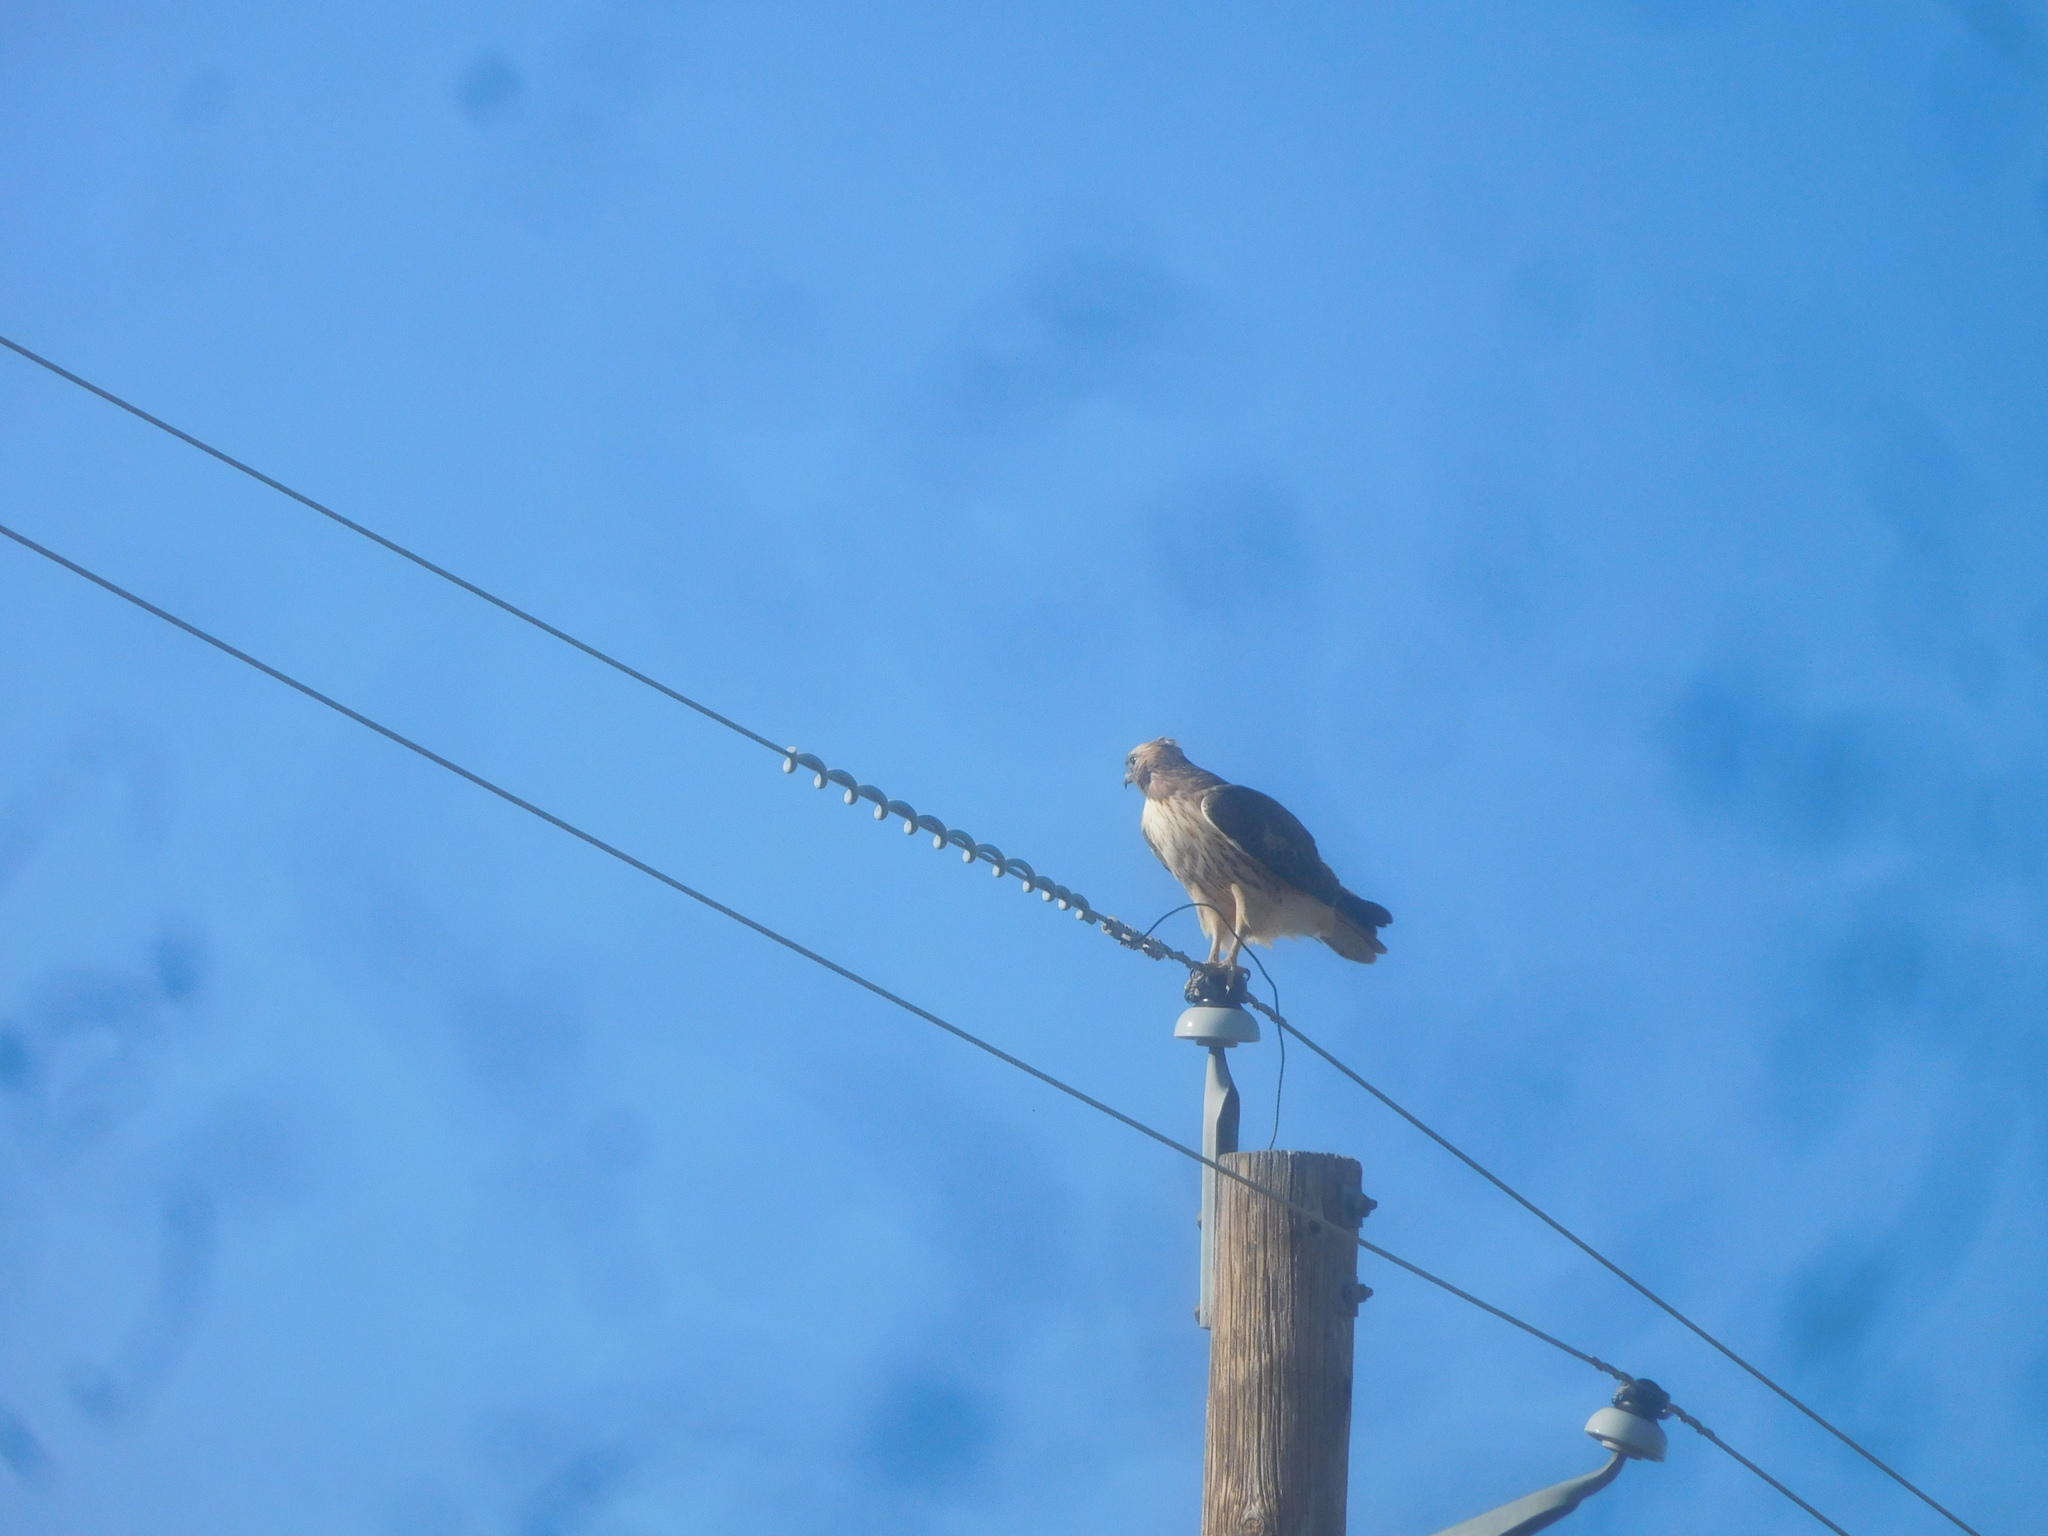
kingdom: Animalia
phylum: Chordata
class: Aves
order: Accipitriformes
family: Accipitridae
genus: Buteo
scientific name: Buteo jamaicensis
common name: Red-tailed hawk
